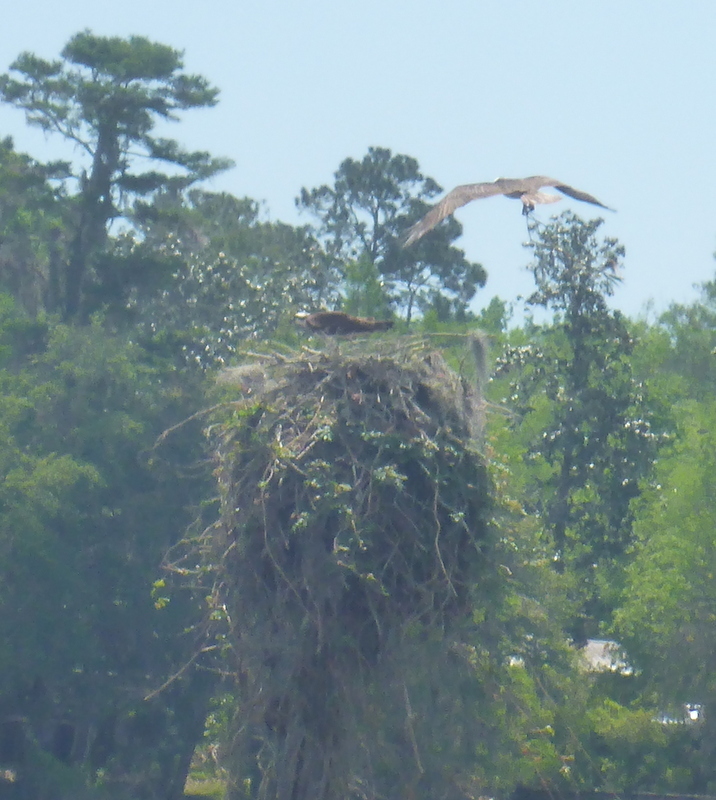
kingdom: Animalia
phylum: Chordata
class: Aves
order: Accipitriformes
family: Pandionidae
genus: Pandion
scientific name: Pandion haliaetus
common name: Osprey
